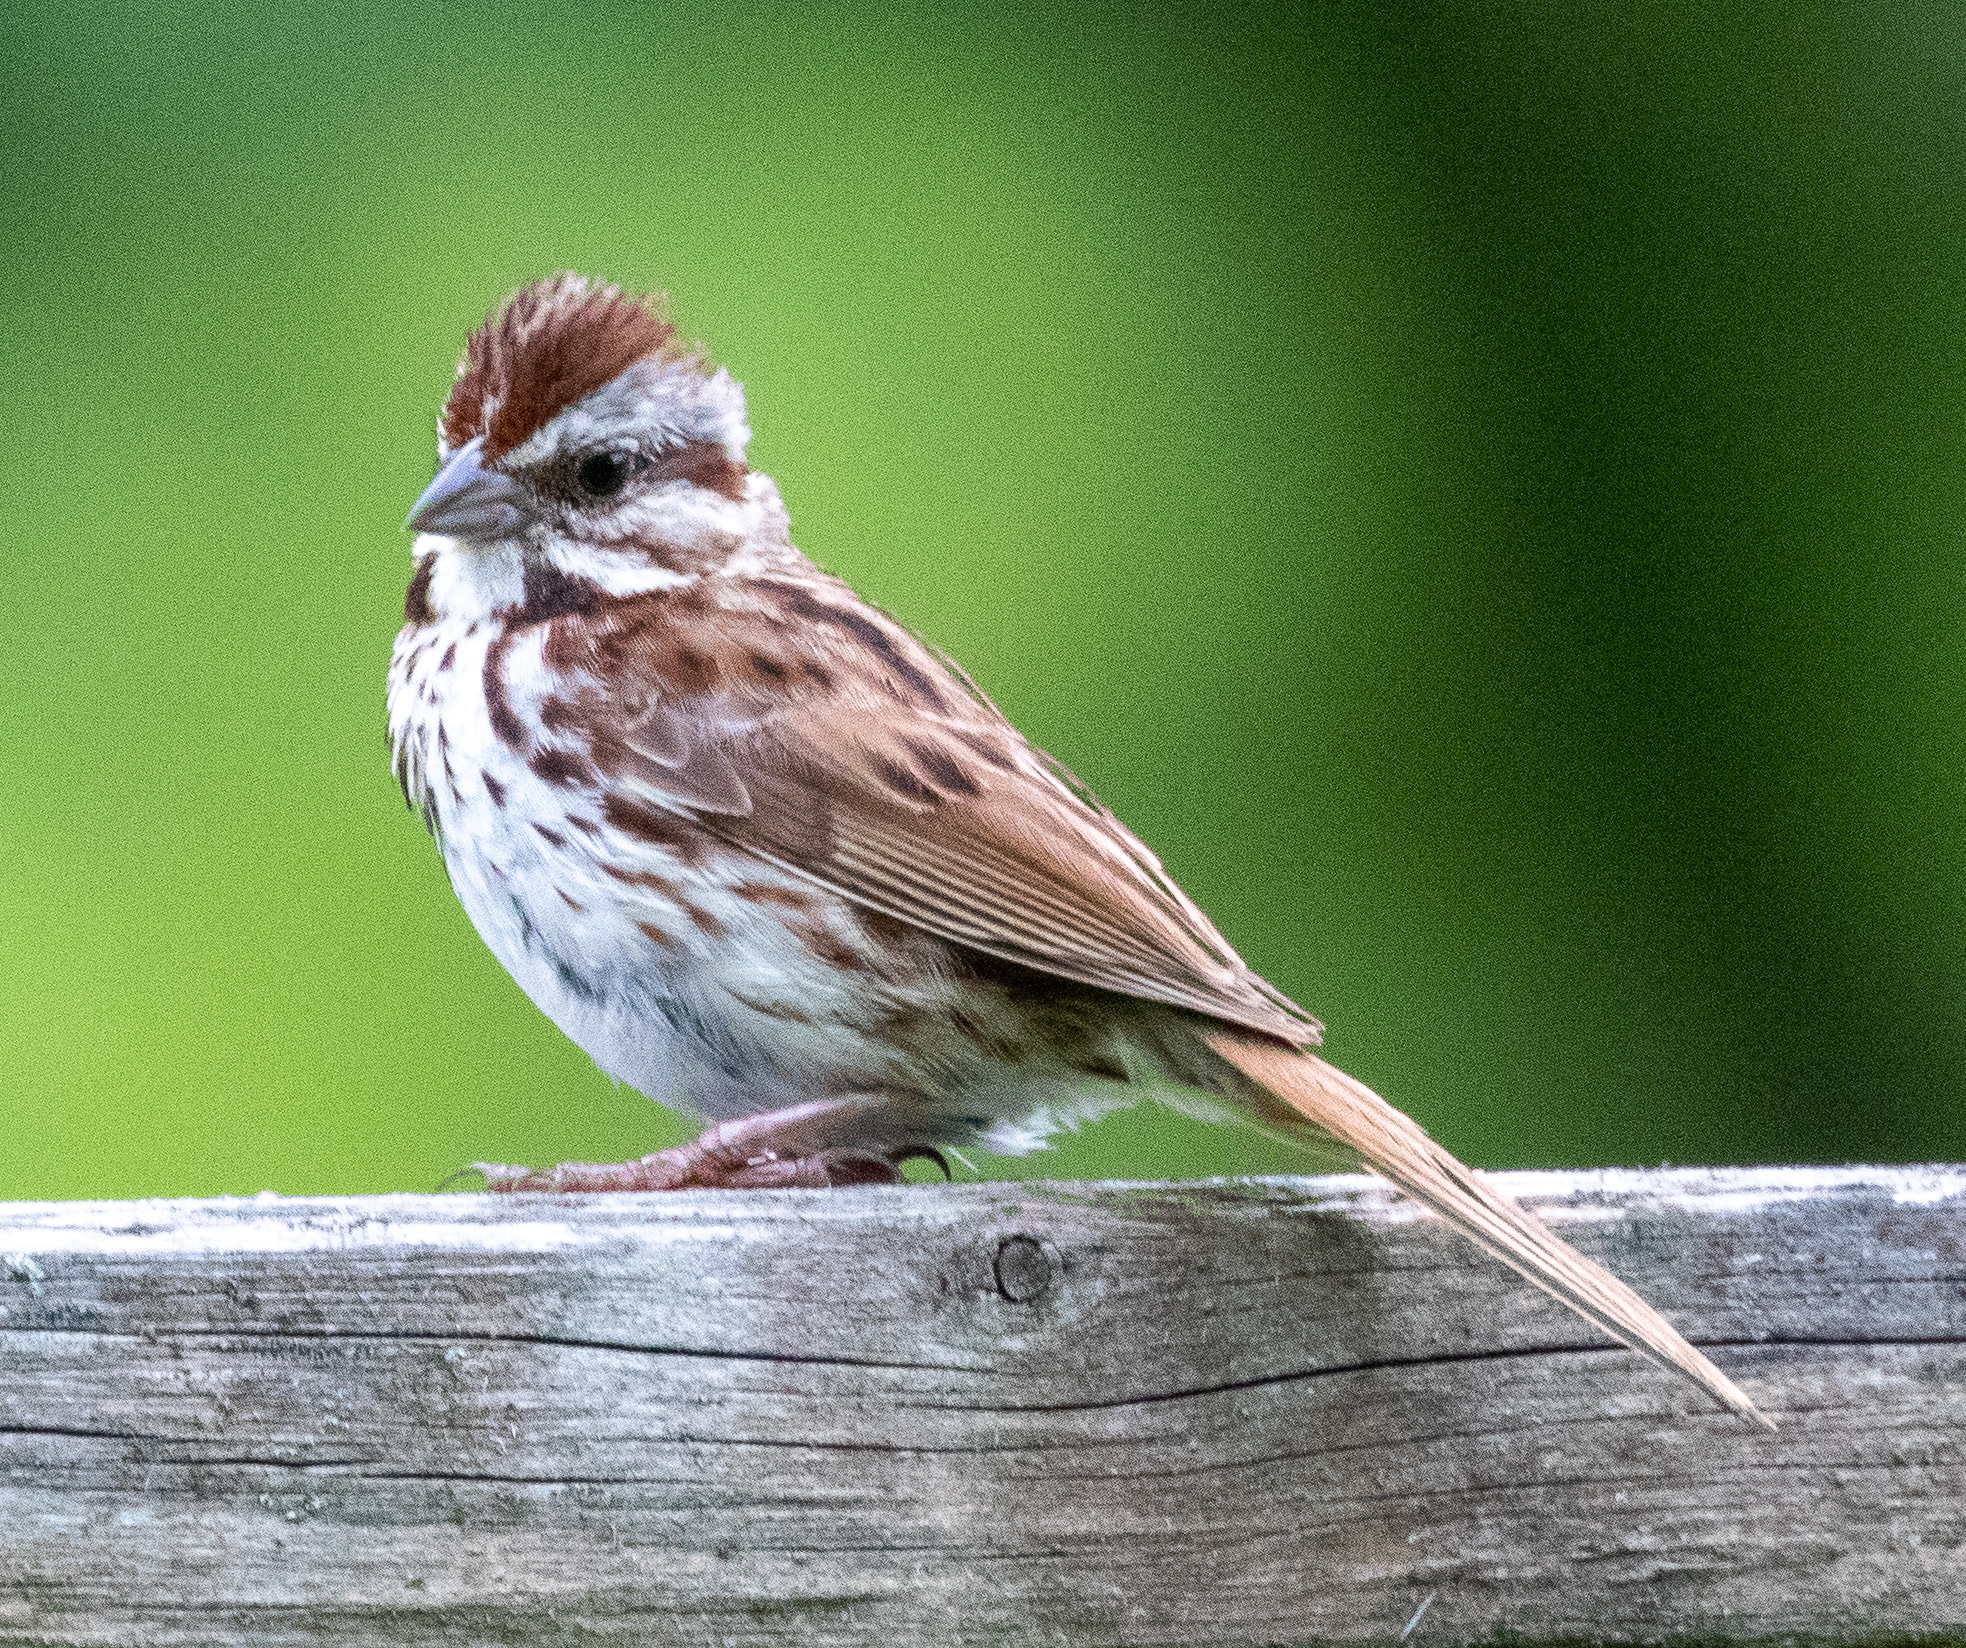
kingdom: Animalia
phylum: Chordata
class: Aves
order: Passeriformes
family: Passerellidae
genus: Melospiza
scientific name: Melospiza melodia
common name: Song sparrow
